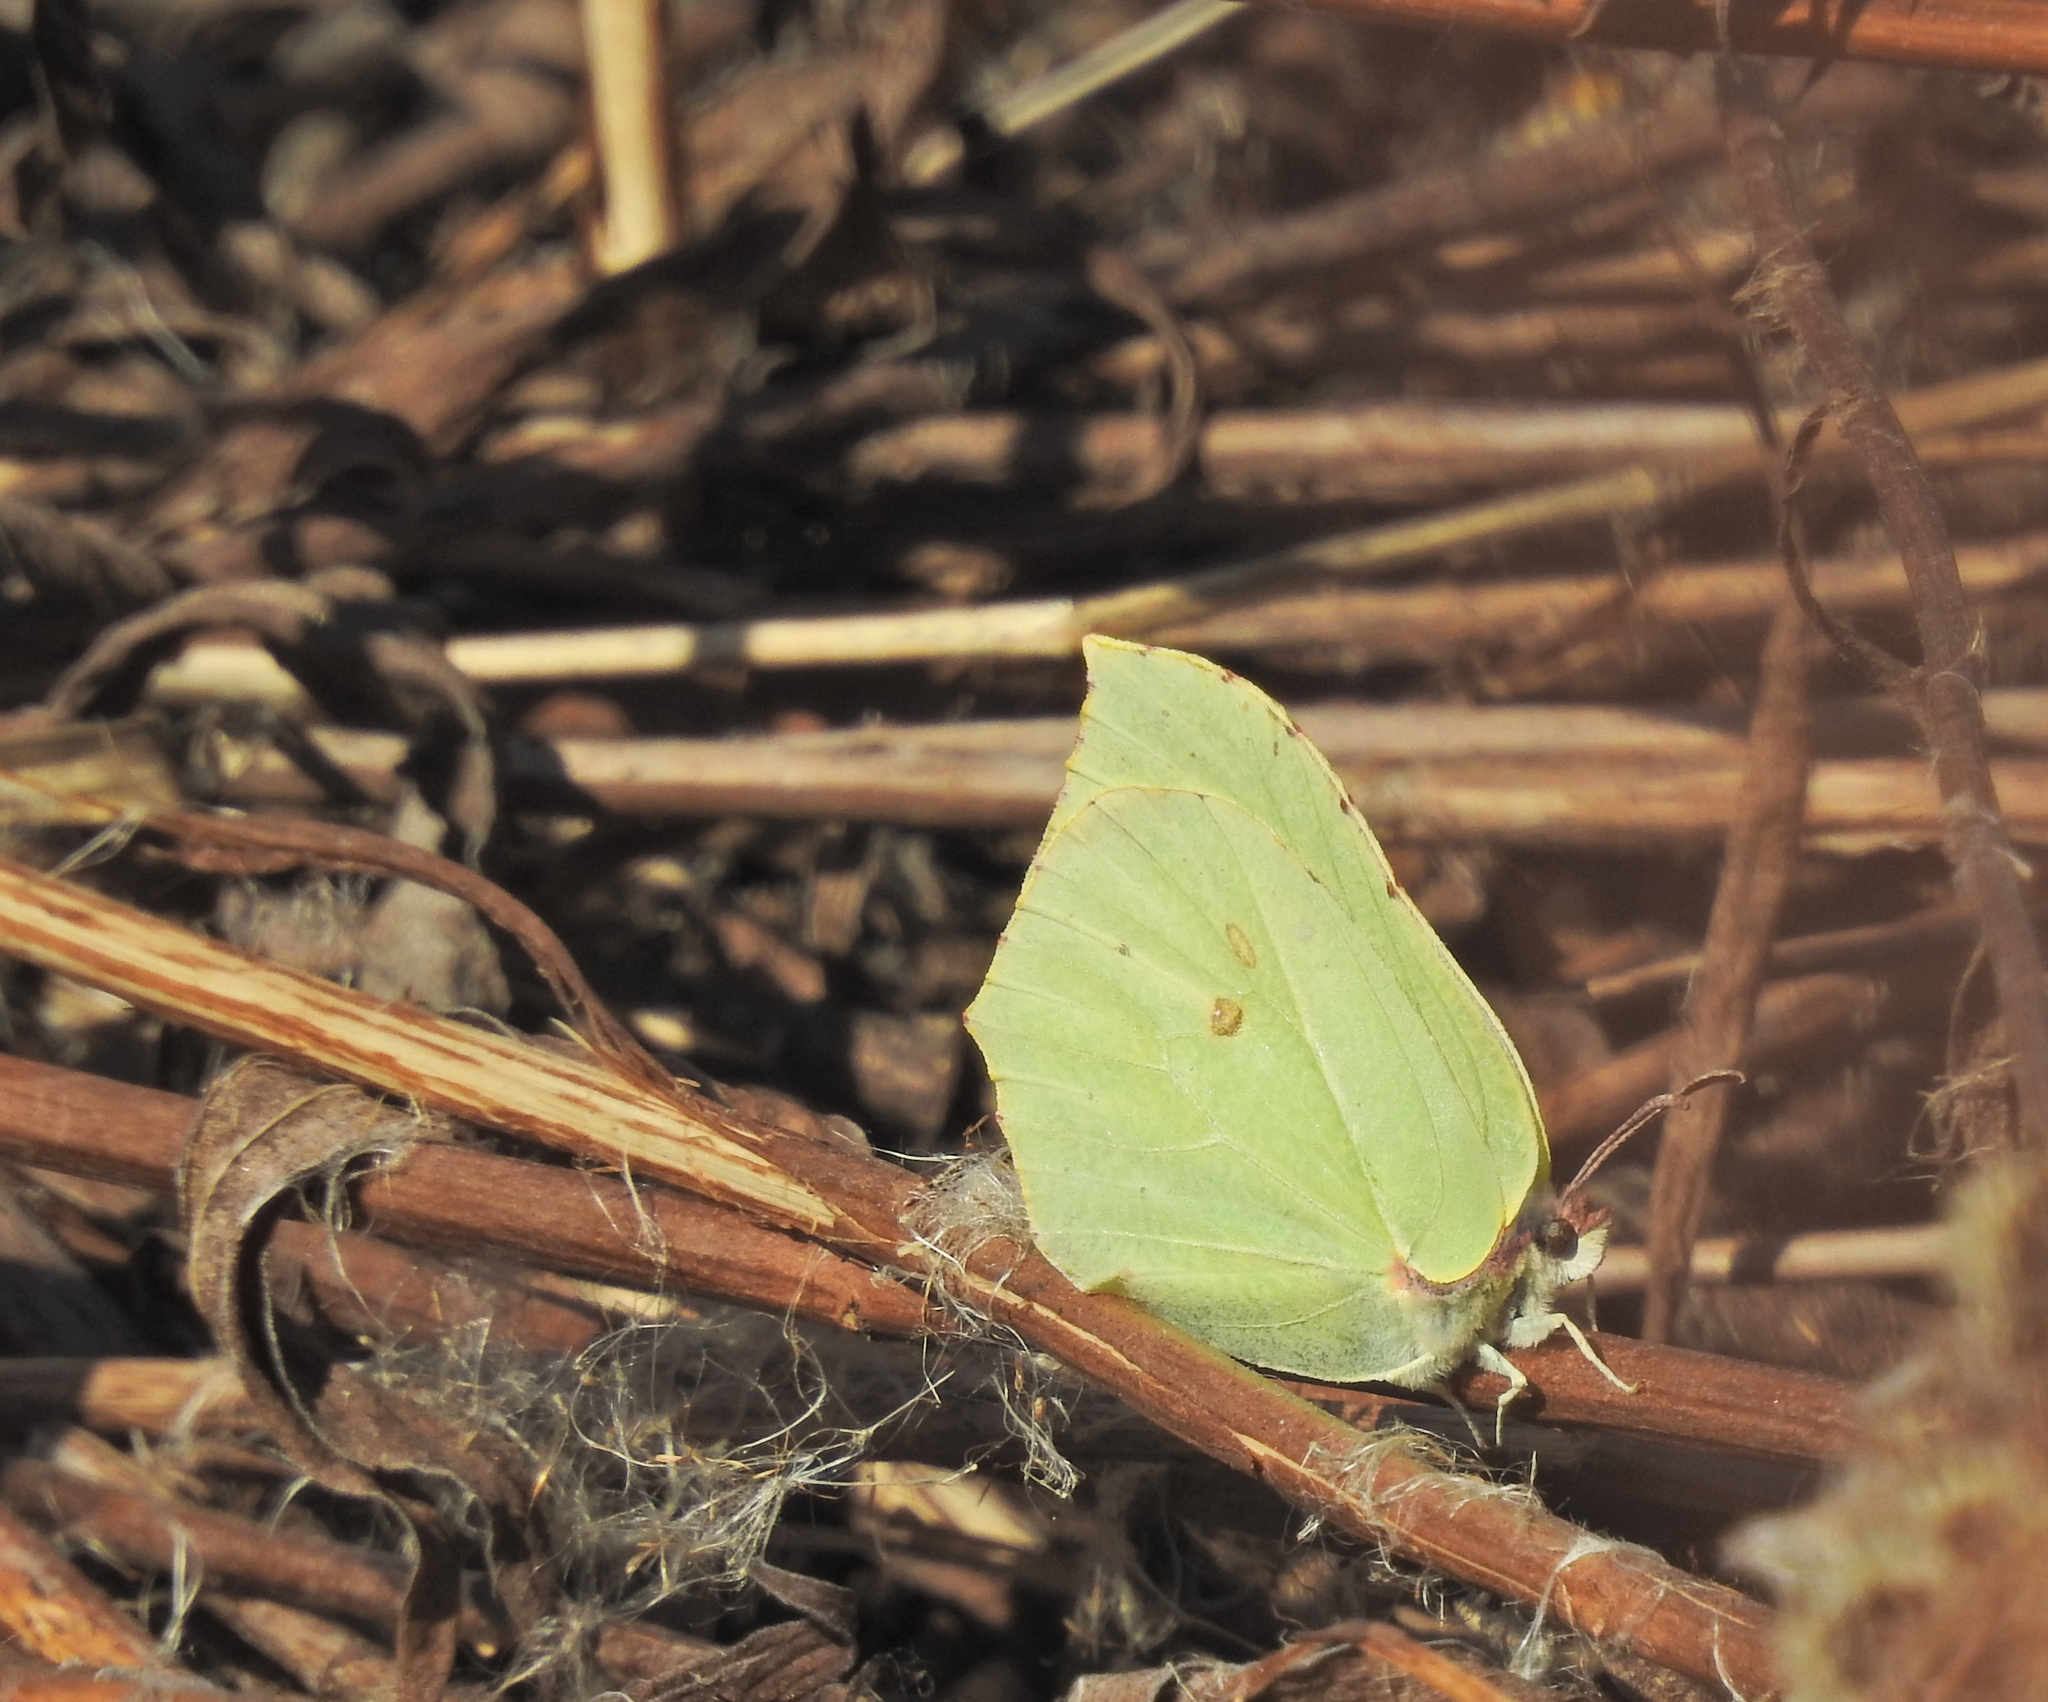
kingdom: Animalia
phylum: Arthropoda
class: Insecta
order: Lepidoptera
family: Pieridae
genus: Gonepteryx
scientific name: Gonepteryx rhamni
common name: Brimstone
